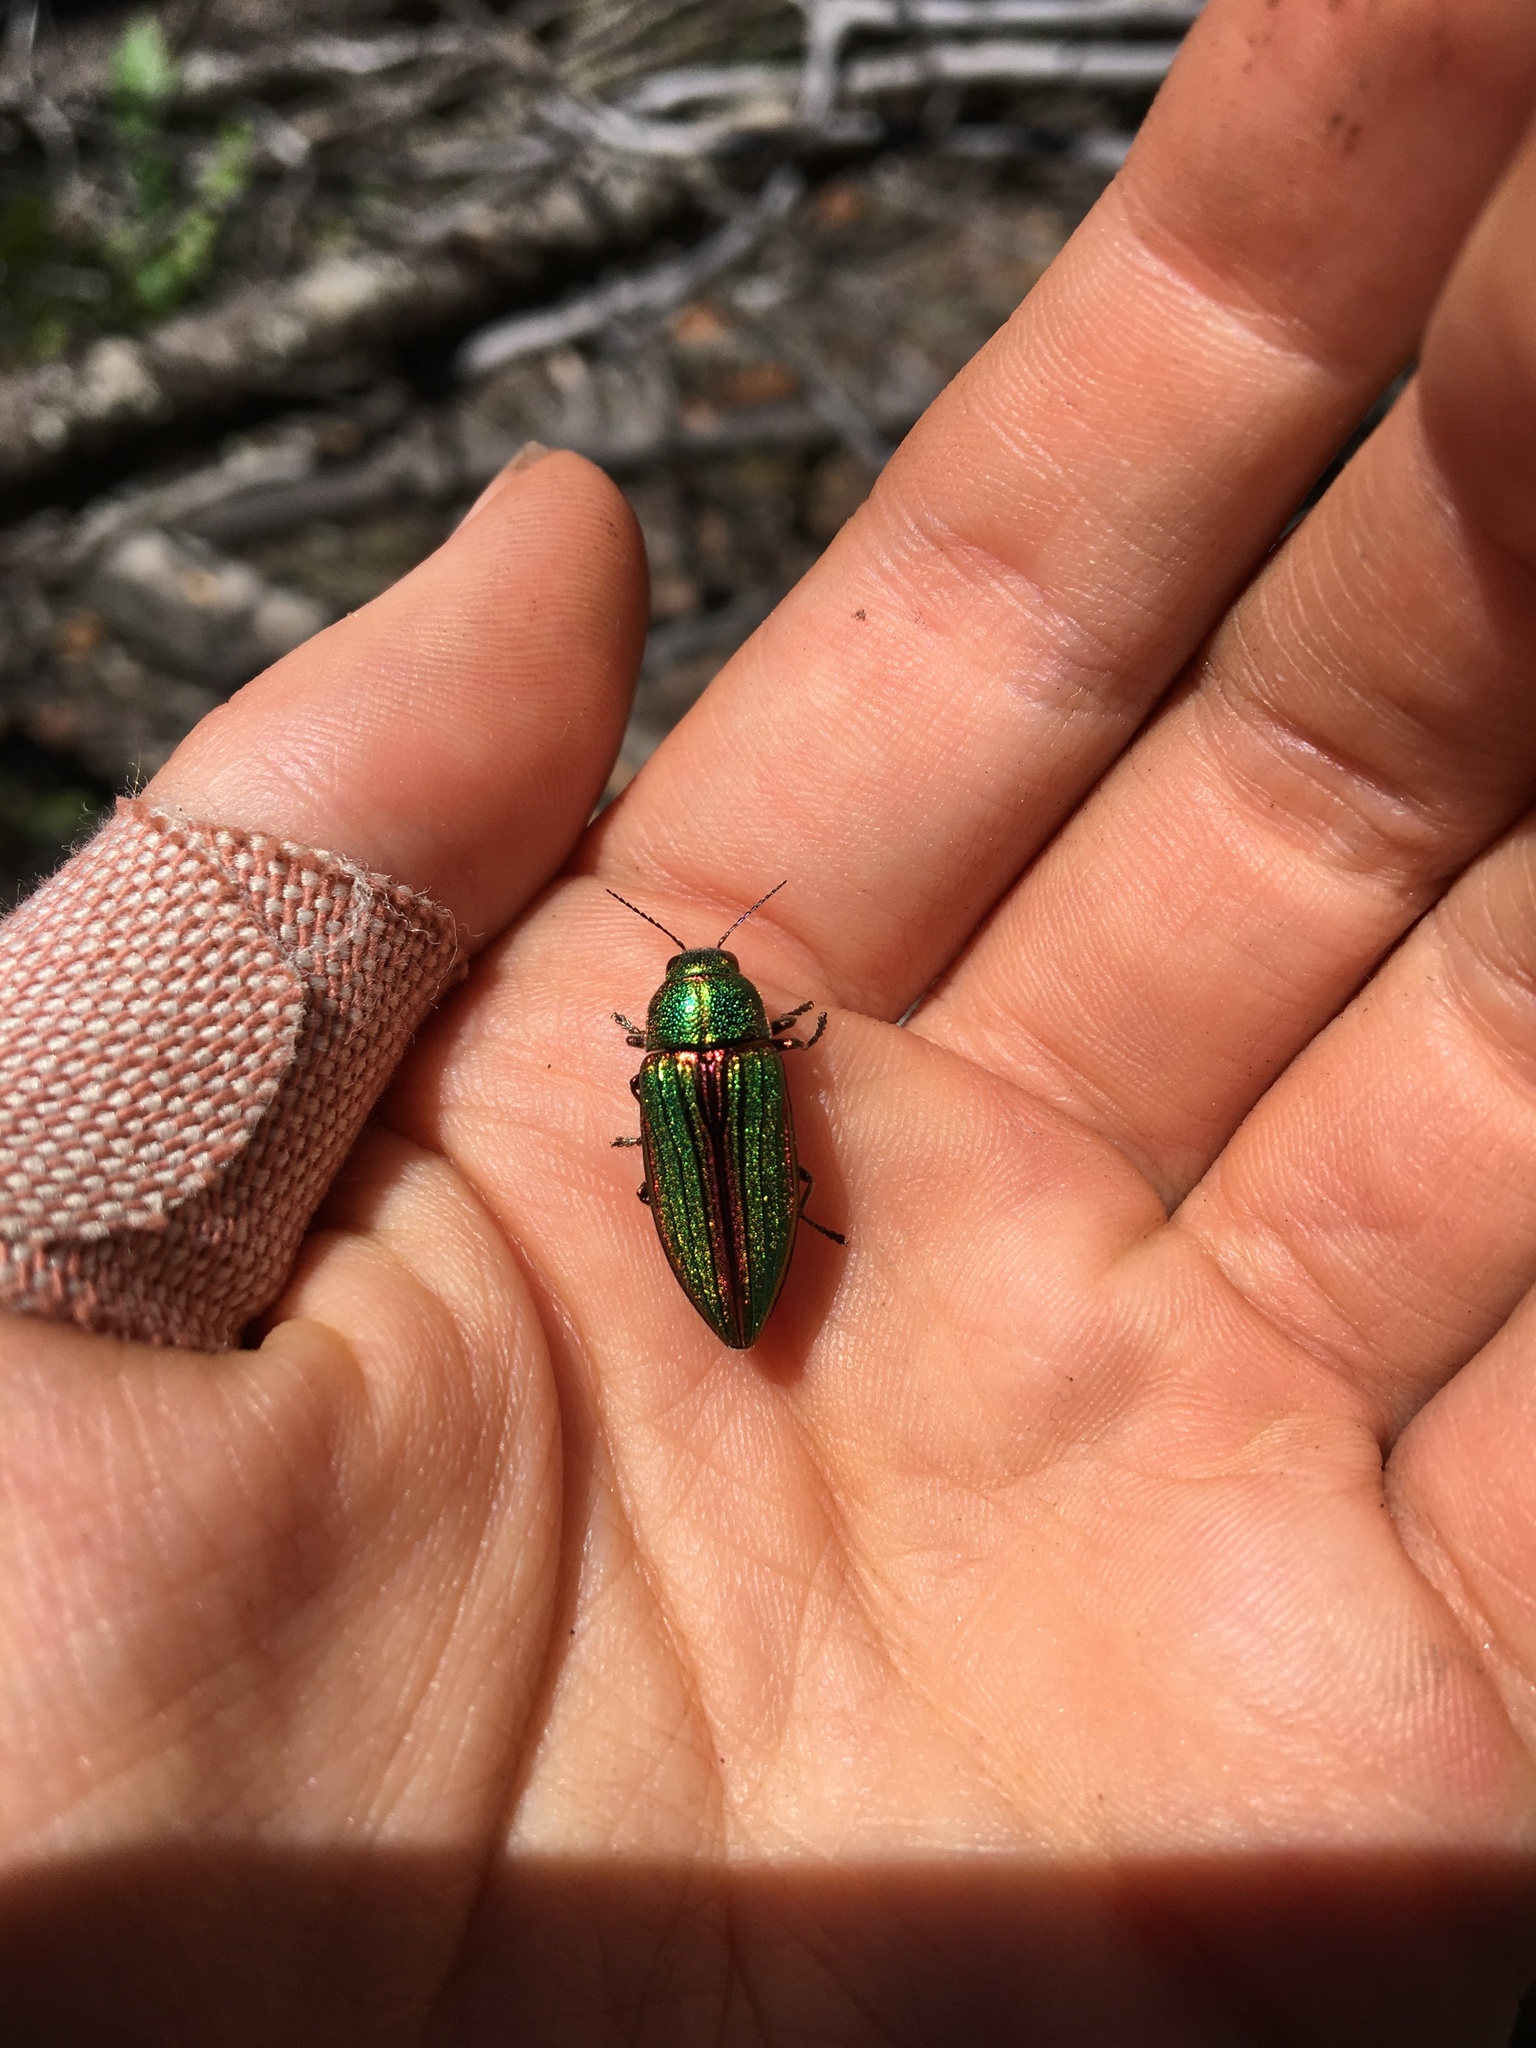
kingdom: Animalia
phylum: Arthropoda
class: Insecta
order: Coleoptera
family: Buprestidae
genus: Buprestis
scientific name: Buprestis aurulenta
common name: Golden buprestid
